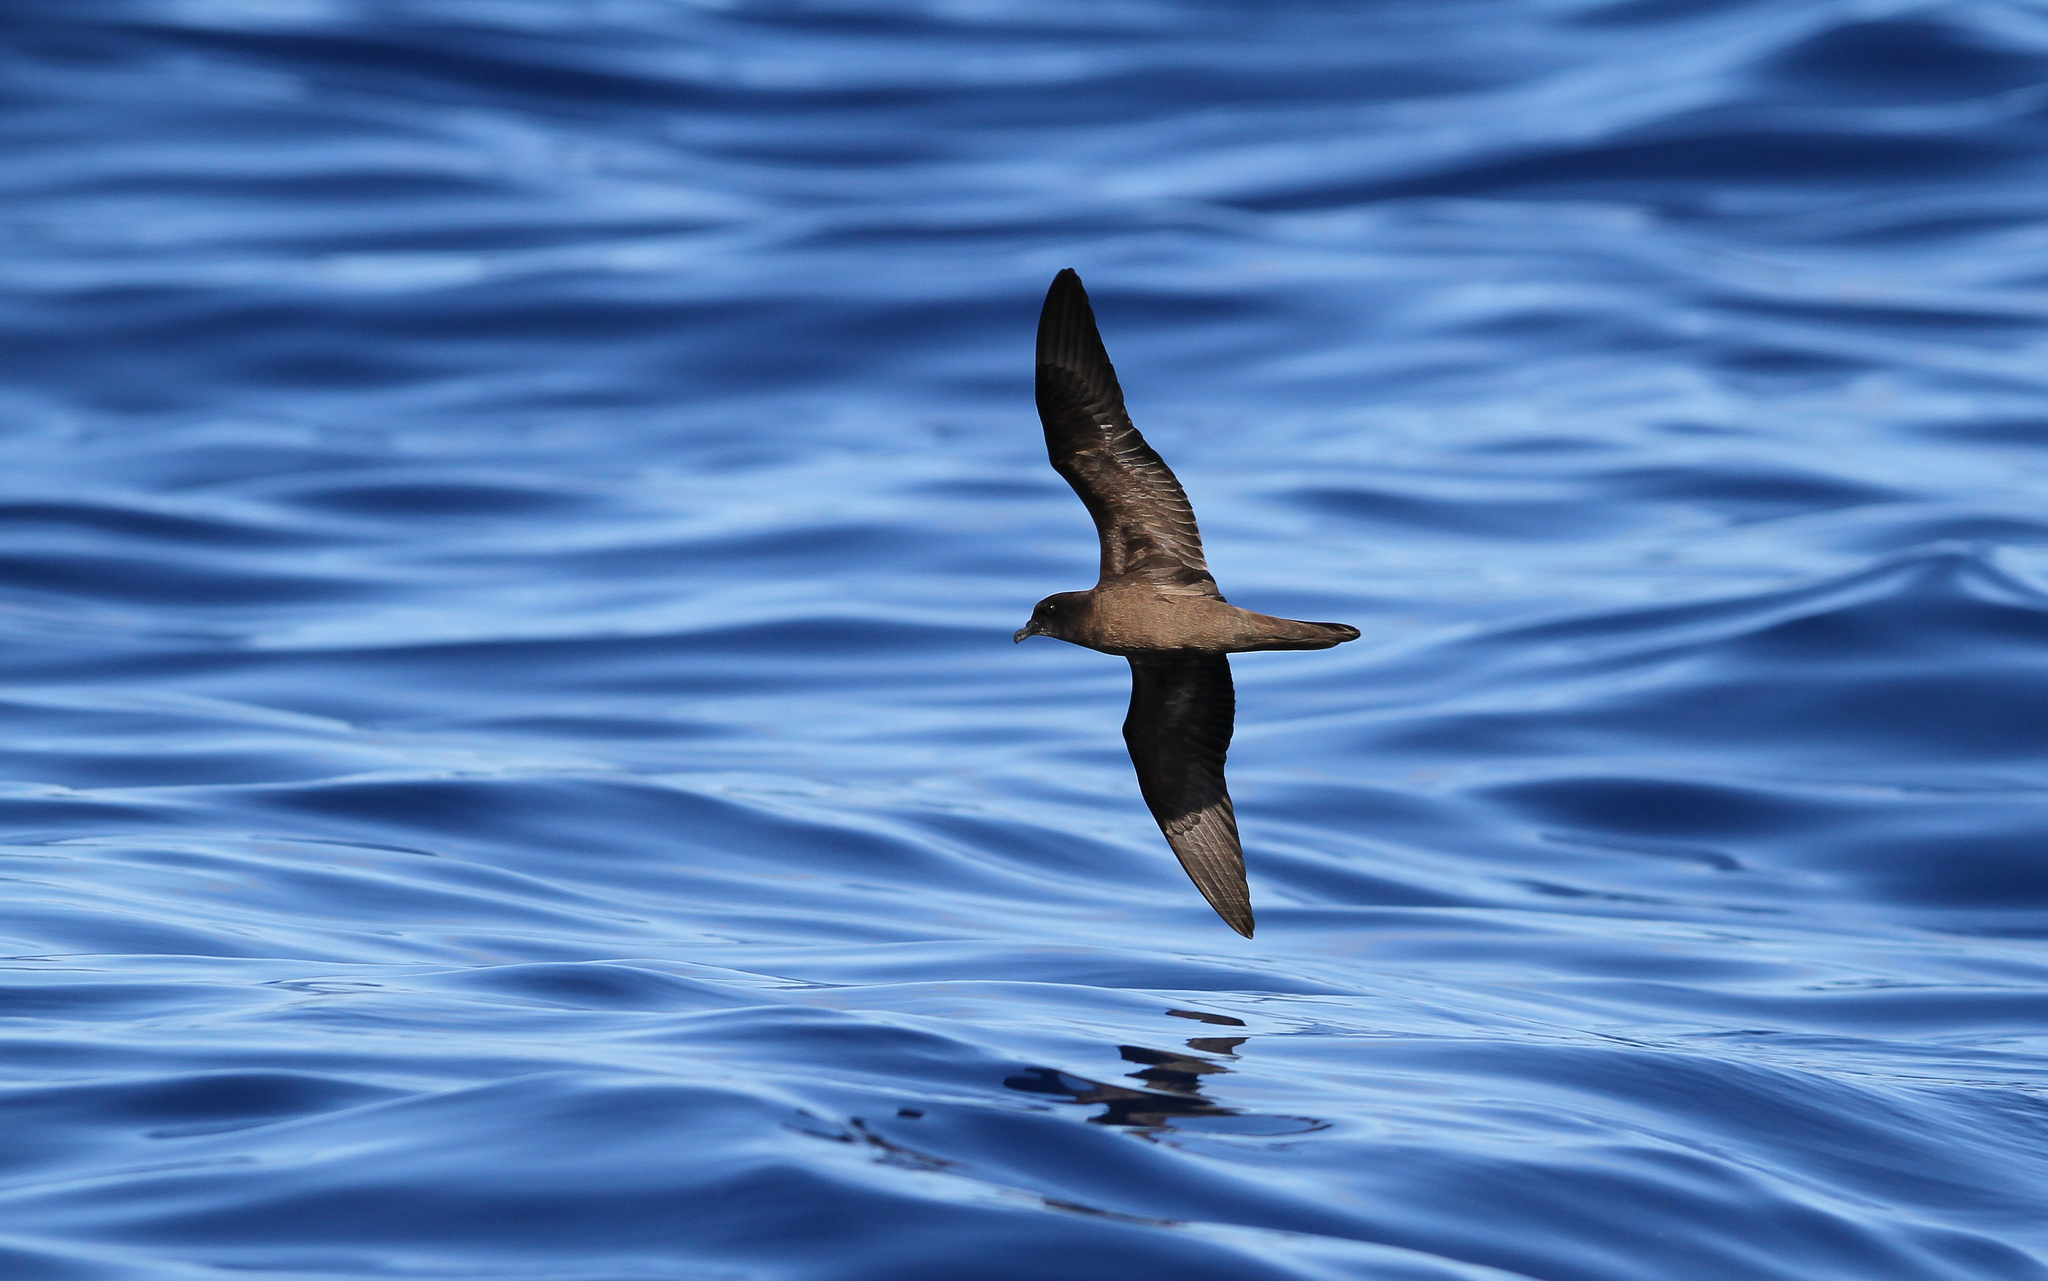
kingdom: Animalia
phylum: Chordata
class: Aves
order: Procellariiformes
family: Procellariidae
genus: Bulweria
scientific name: Bulweria bulwerii
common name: Bulwer's petrel
